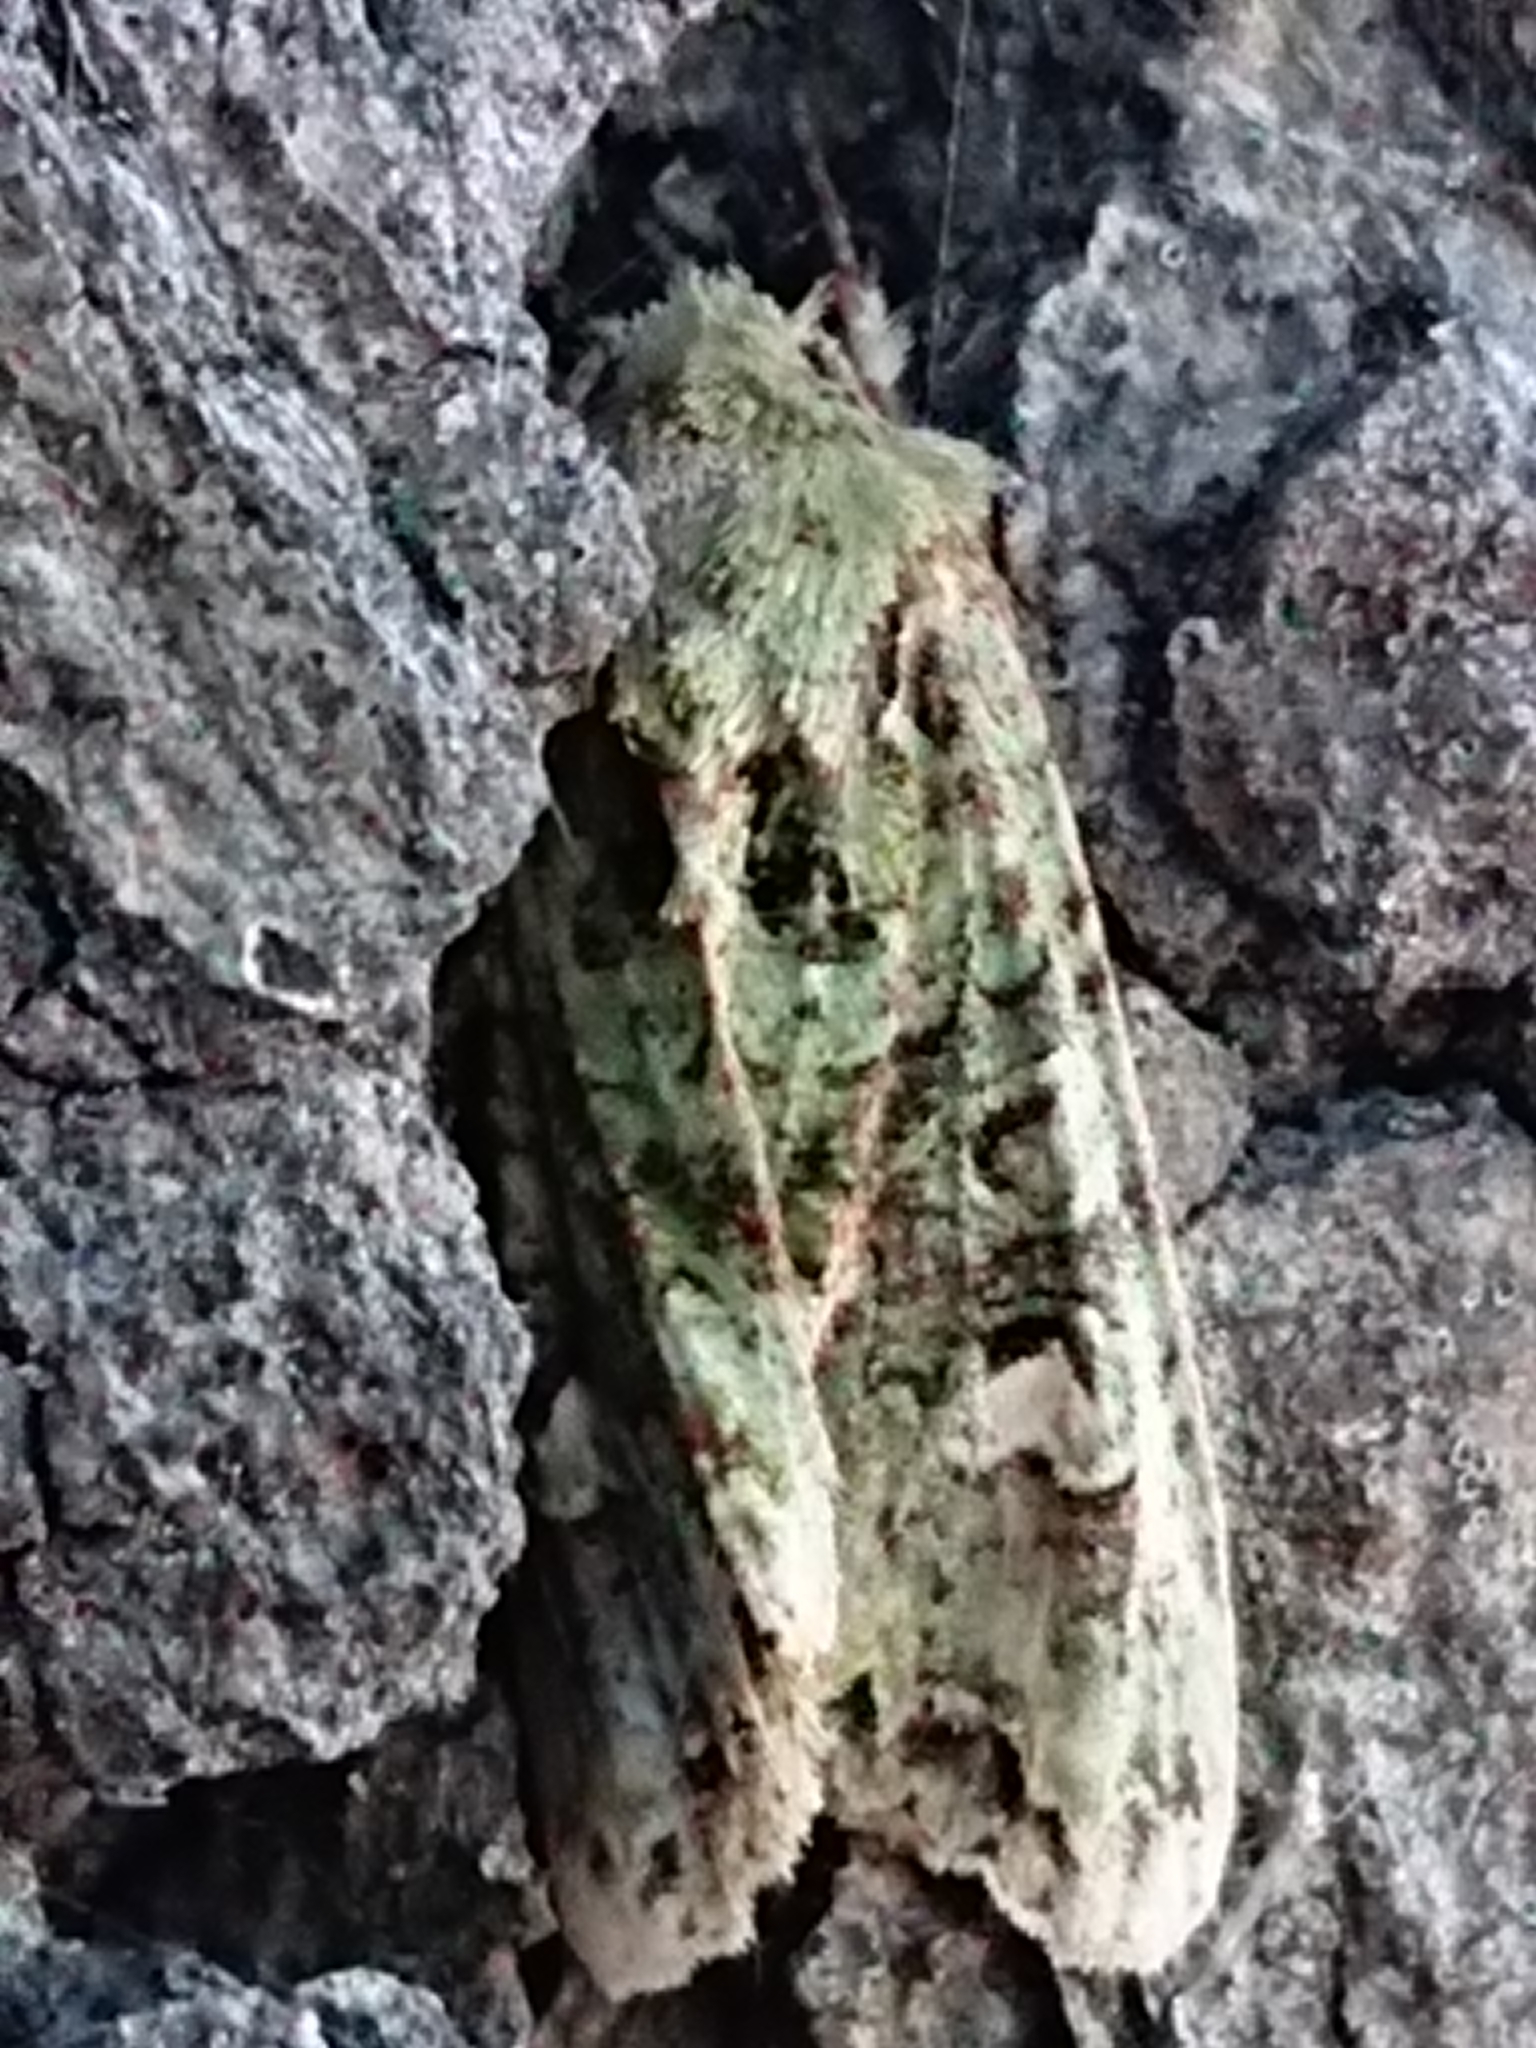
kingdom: Animalia
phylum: Arthropoda
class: Insecta
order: Lepidoptera
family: Noctuidae
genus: Ichneutica
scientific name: Ichneutica
